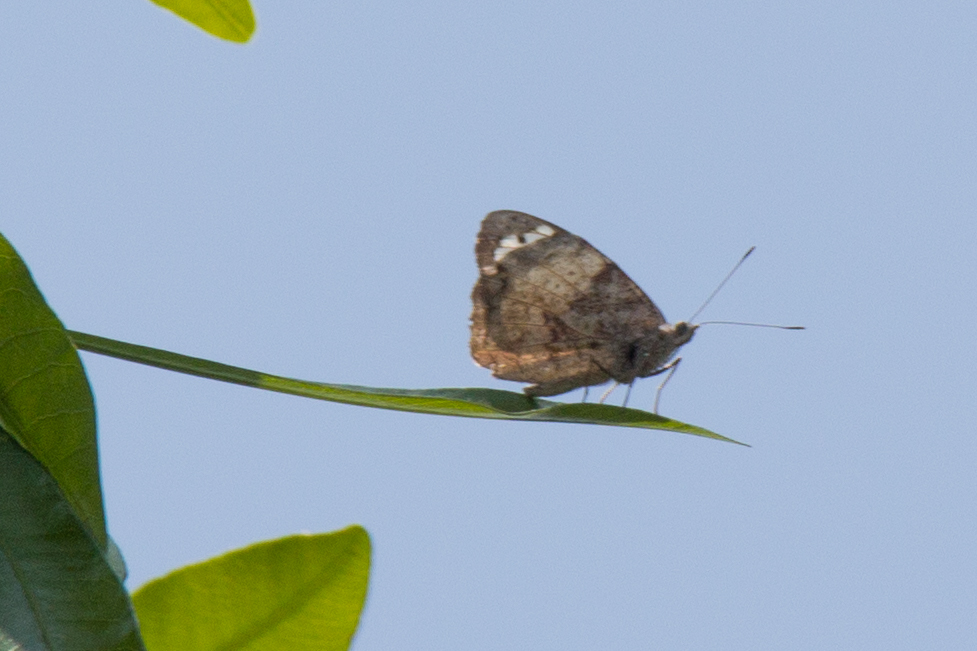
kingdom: Animalia
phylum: Arthropoda
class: Insecta
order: Lepidoptera
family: Nymphalidae
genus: Eunica
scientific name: Eunica eburnea
